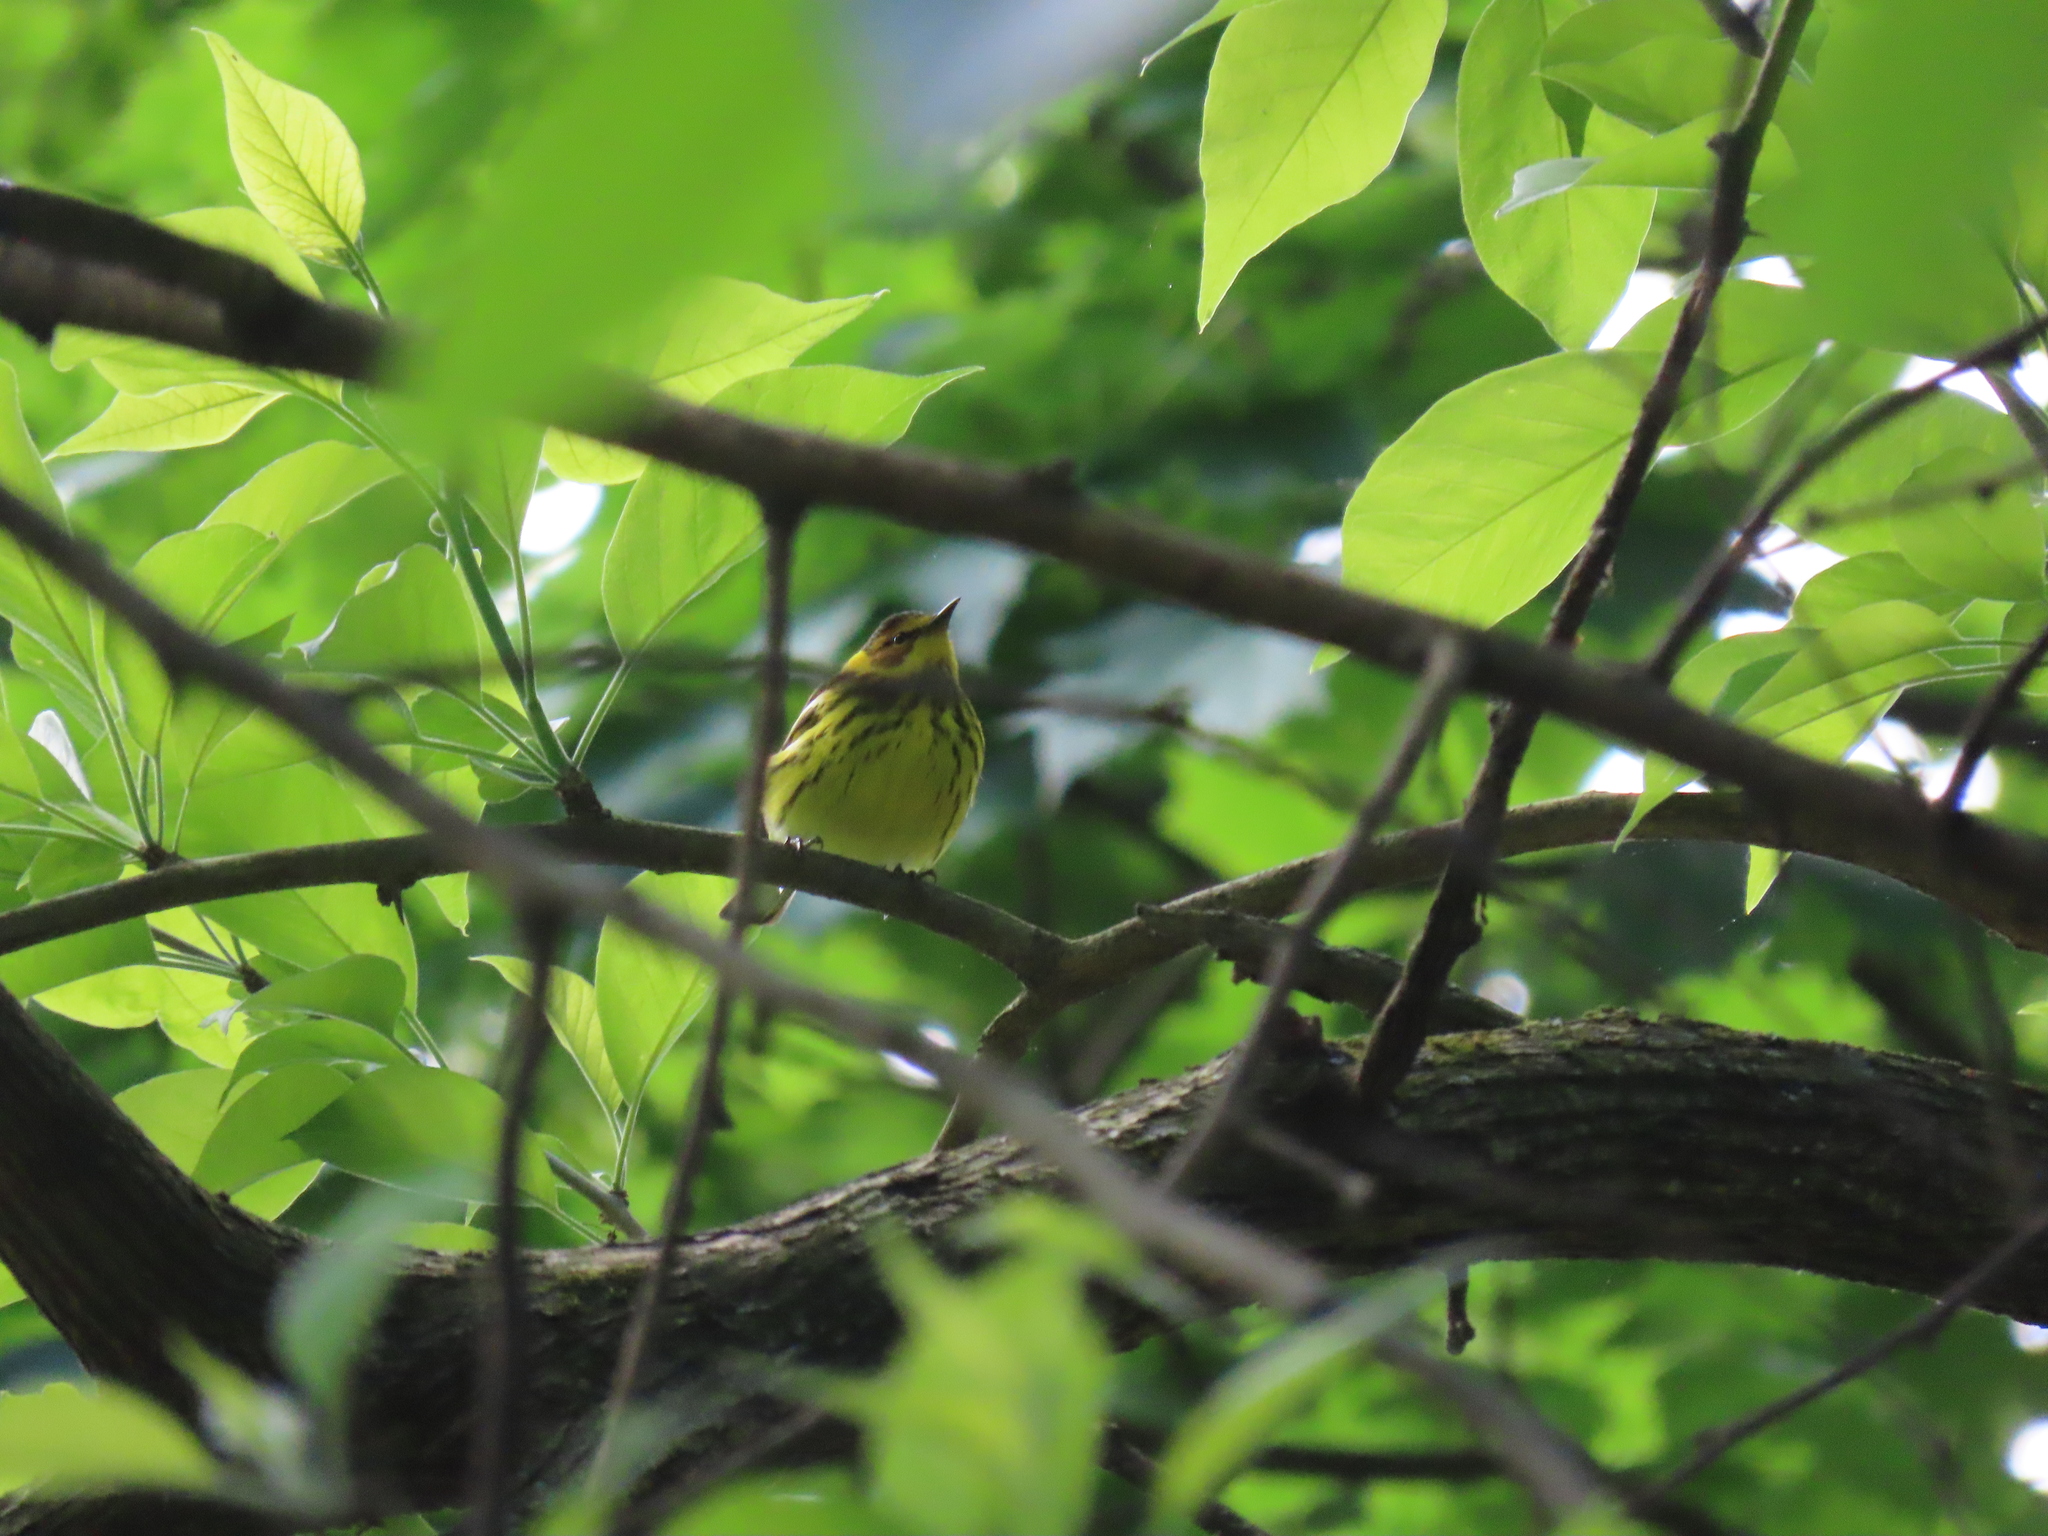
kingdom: Animalia
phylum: Chordata
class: Aves
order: Passeriformes
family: Parulidae
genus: Setophaga
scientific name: Setophaga tigrina
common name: Cape may warbler
